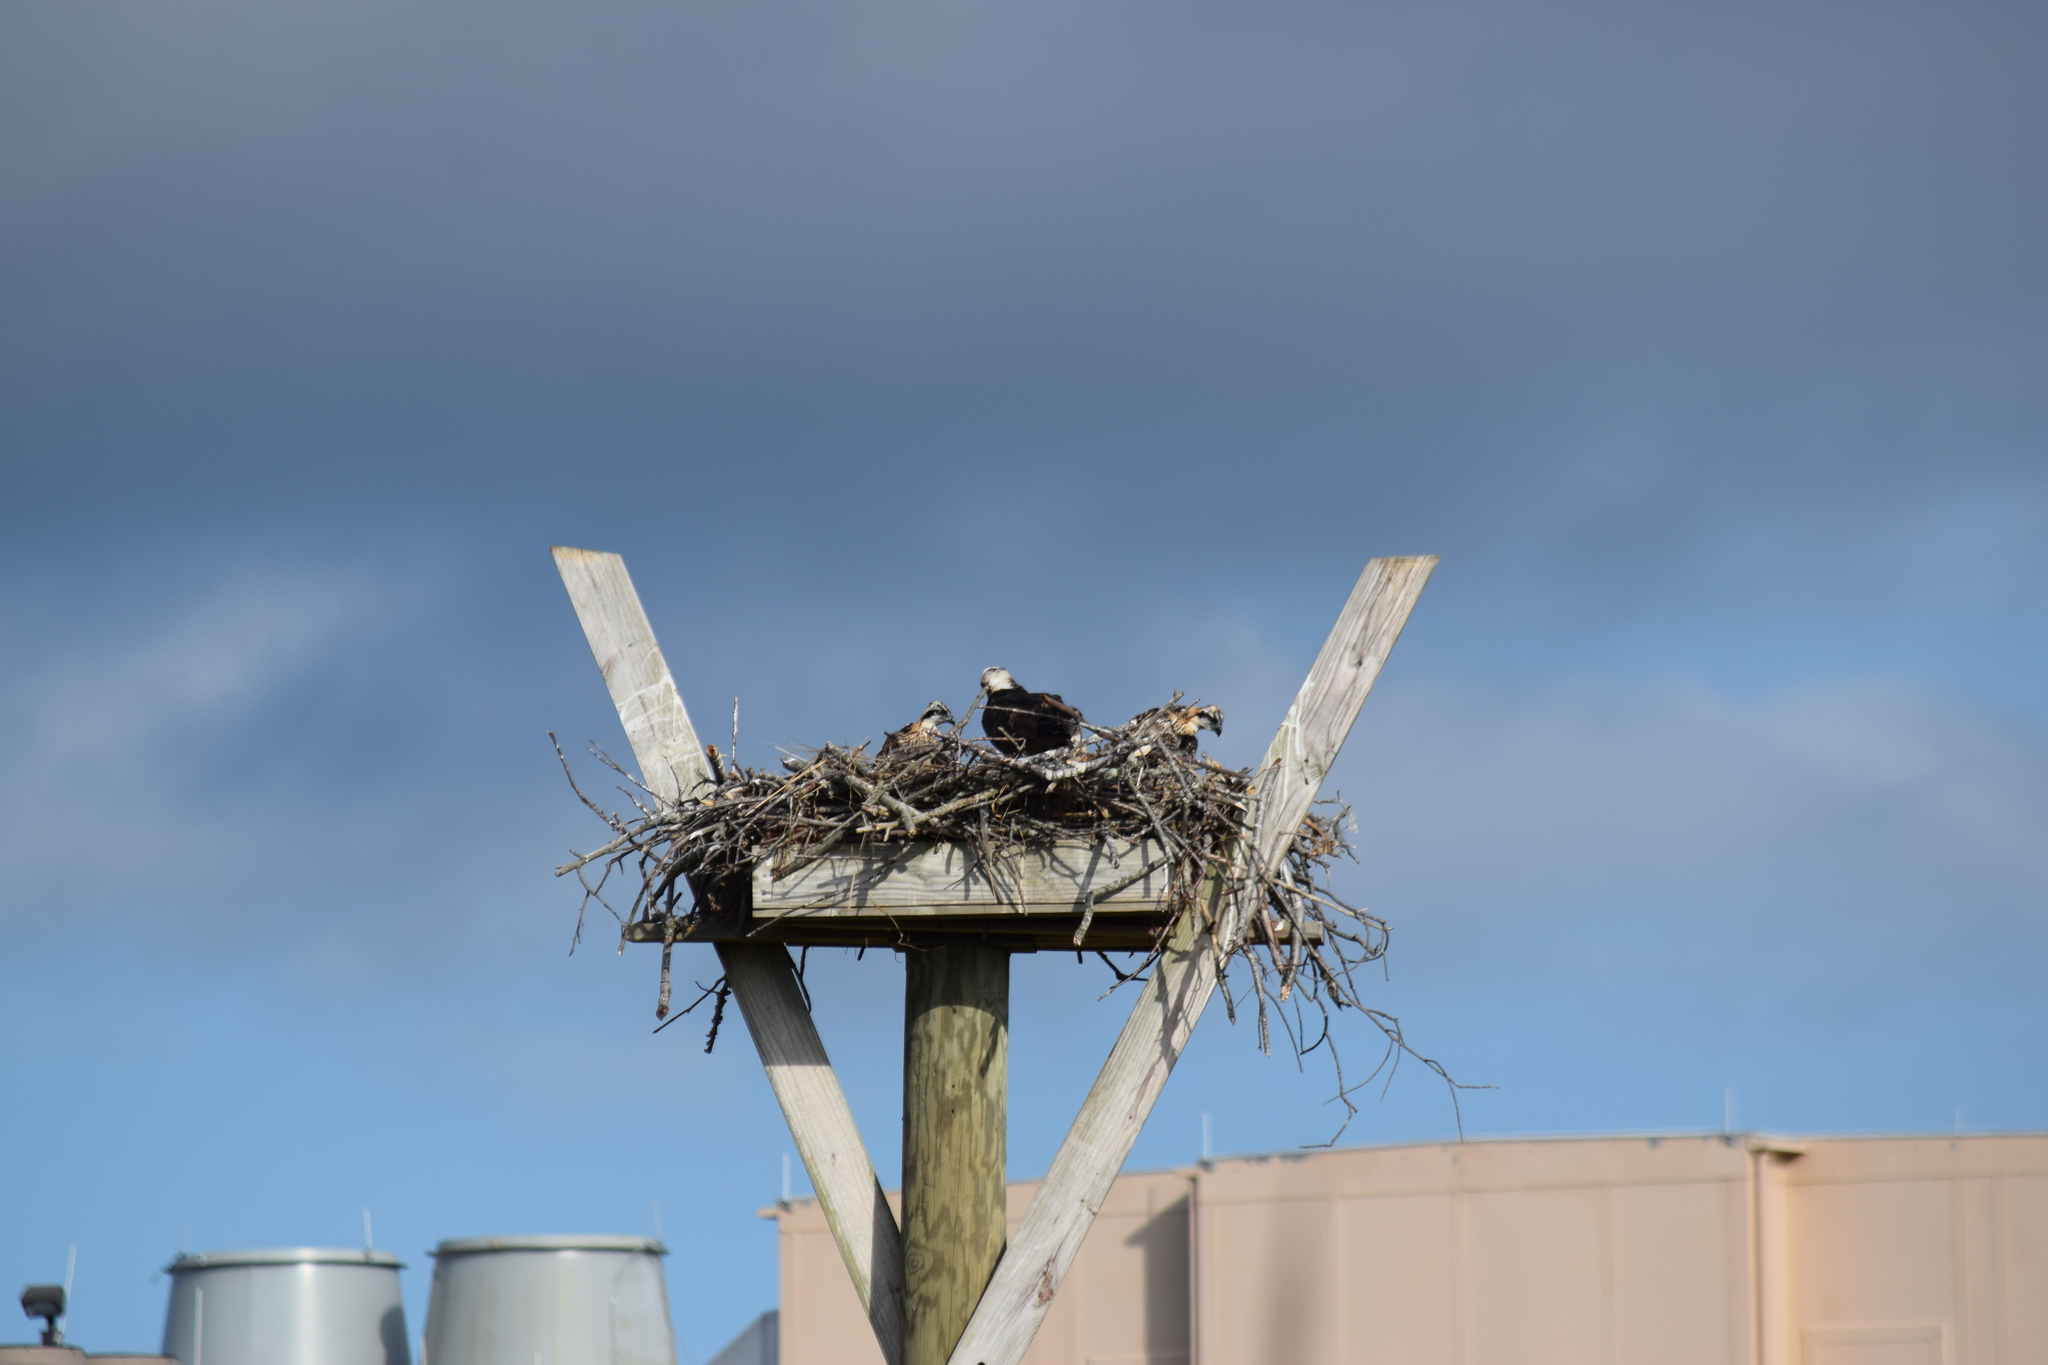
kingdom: Animalia
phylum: Chordata
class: Aves
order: Accipitriformes
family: Pandionidae
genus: Pandion
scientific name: Pandion haliaetus
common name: Osprey
